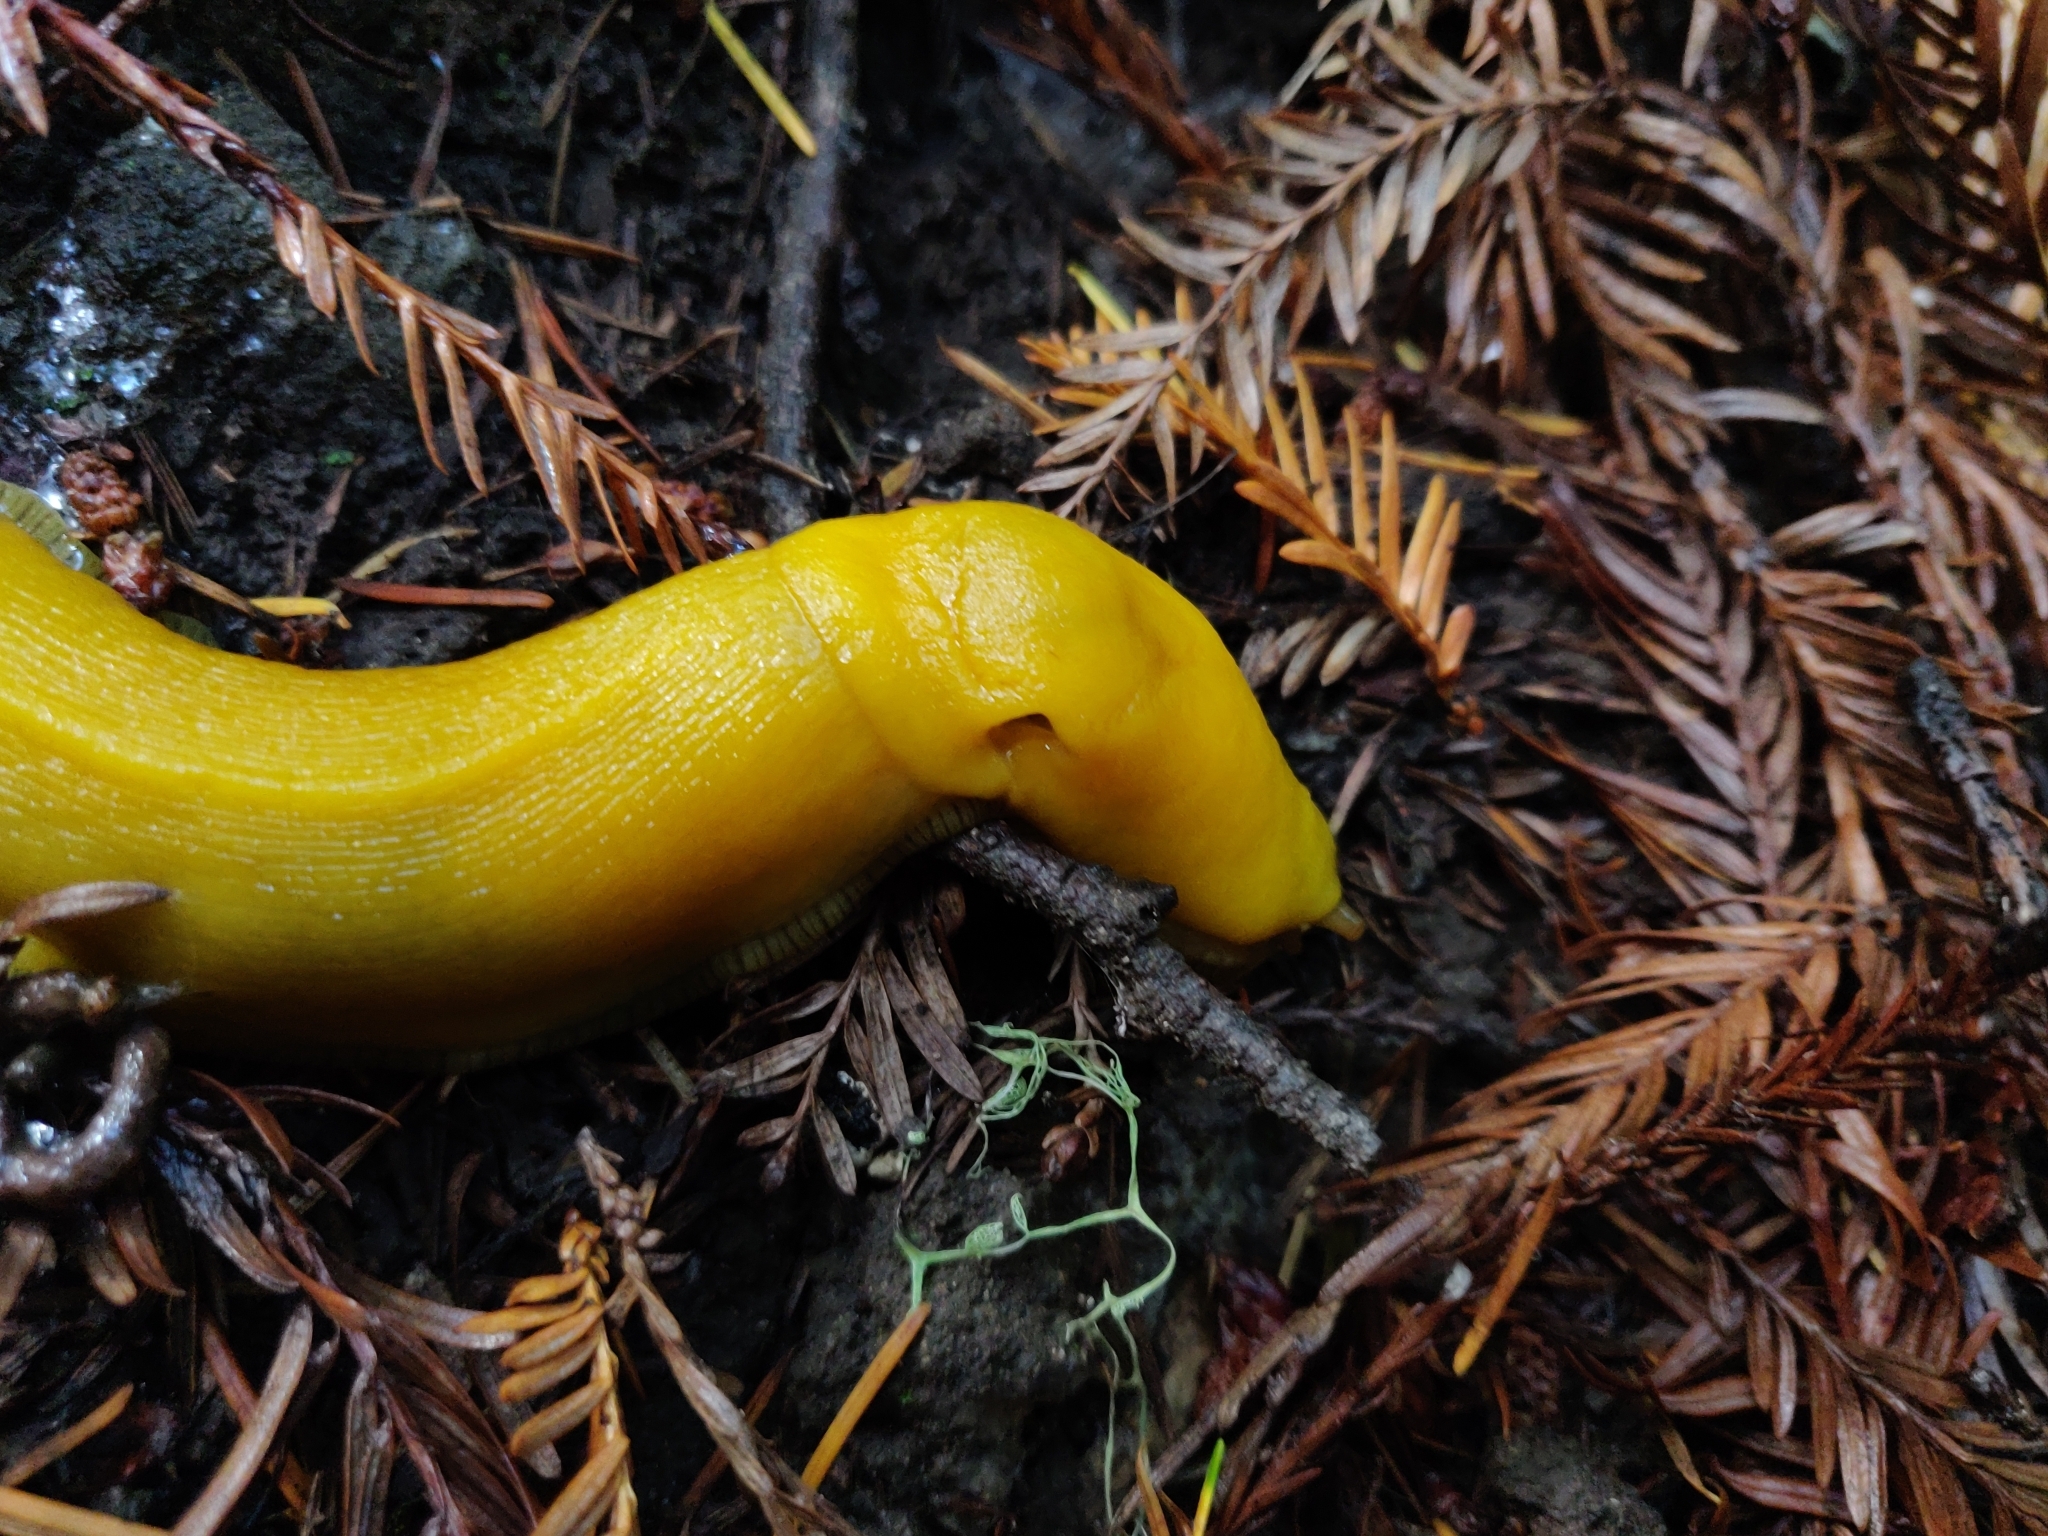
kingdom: Animalia
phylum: Mollusca
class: Gastropoda
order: Stylommatophora
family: Ariolimacidae
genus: Ariolimax
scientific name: Ariolimax californicus
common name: California banana slug
